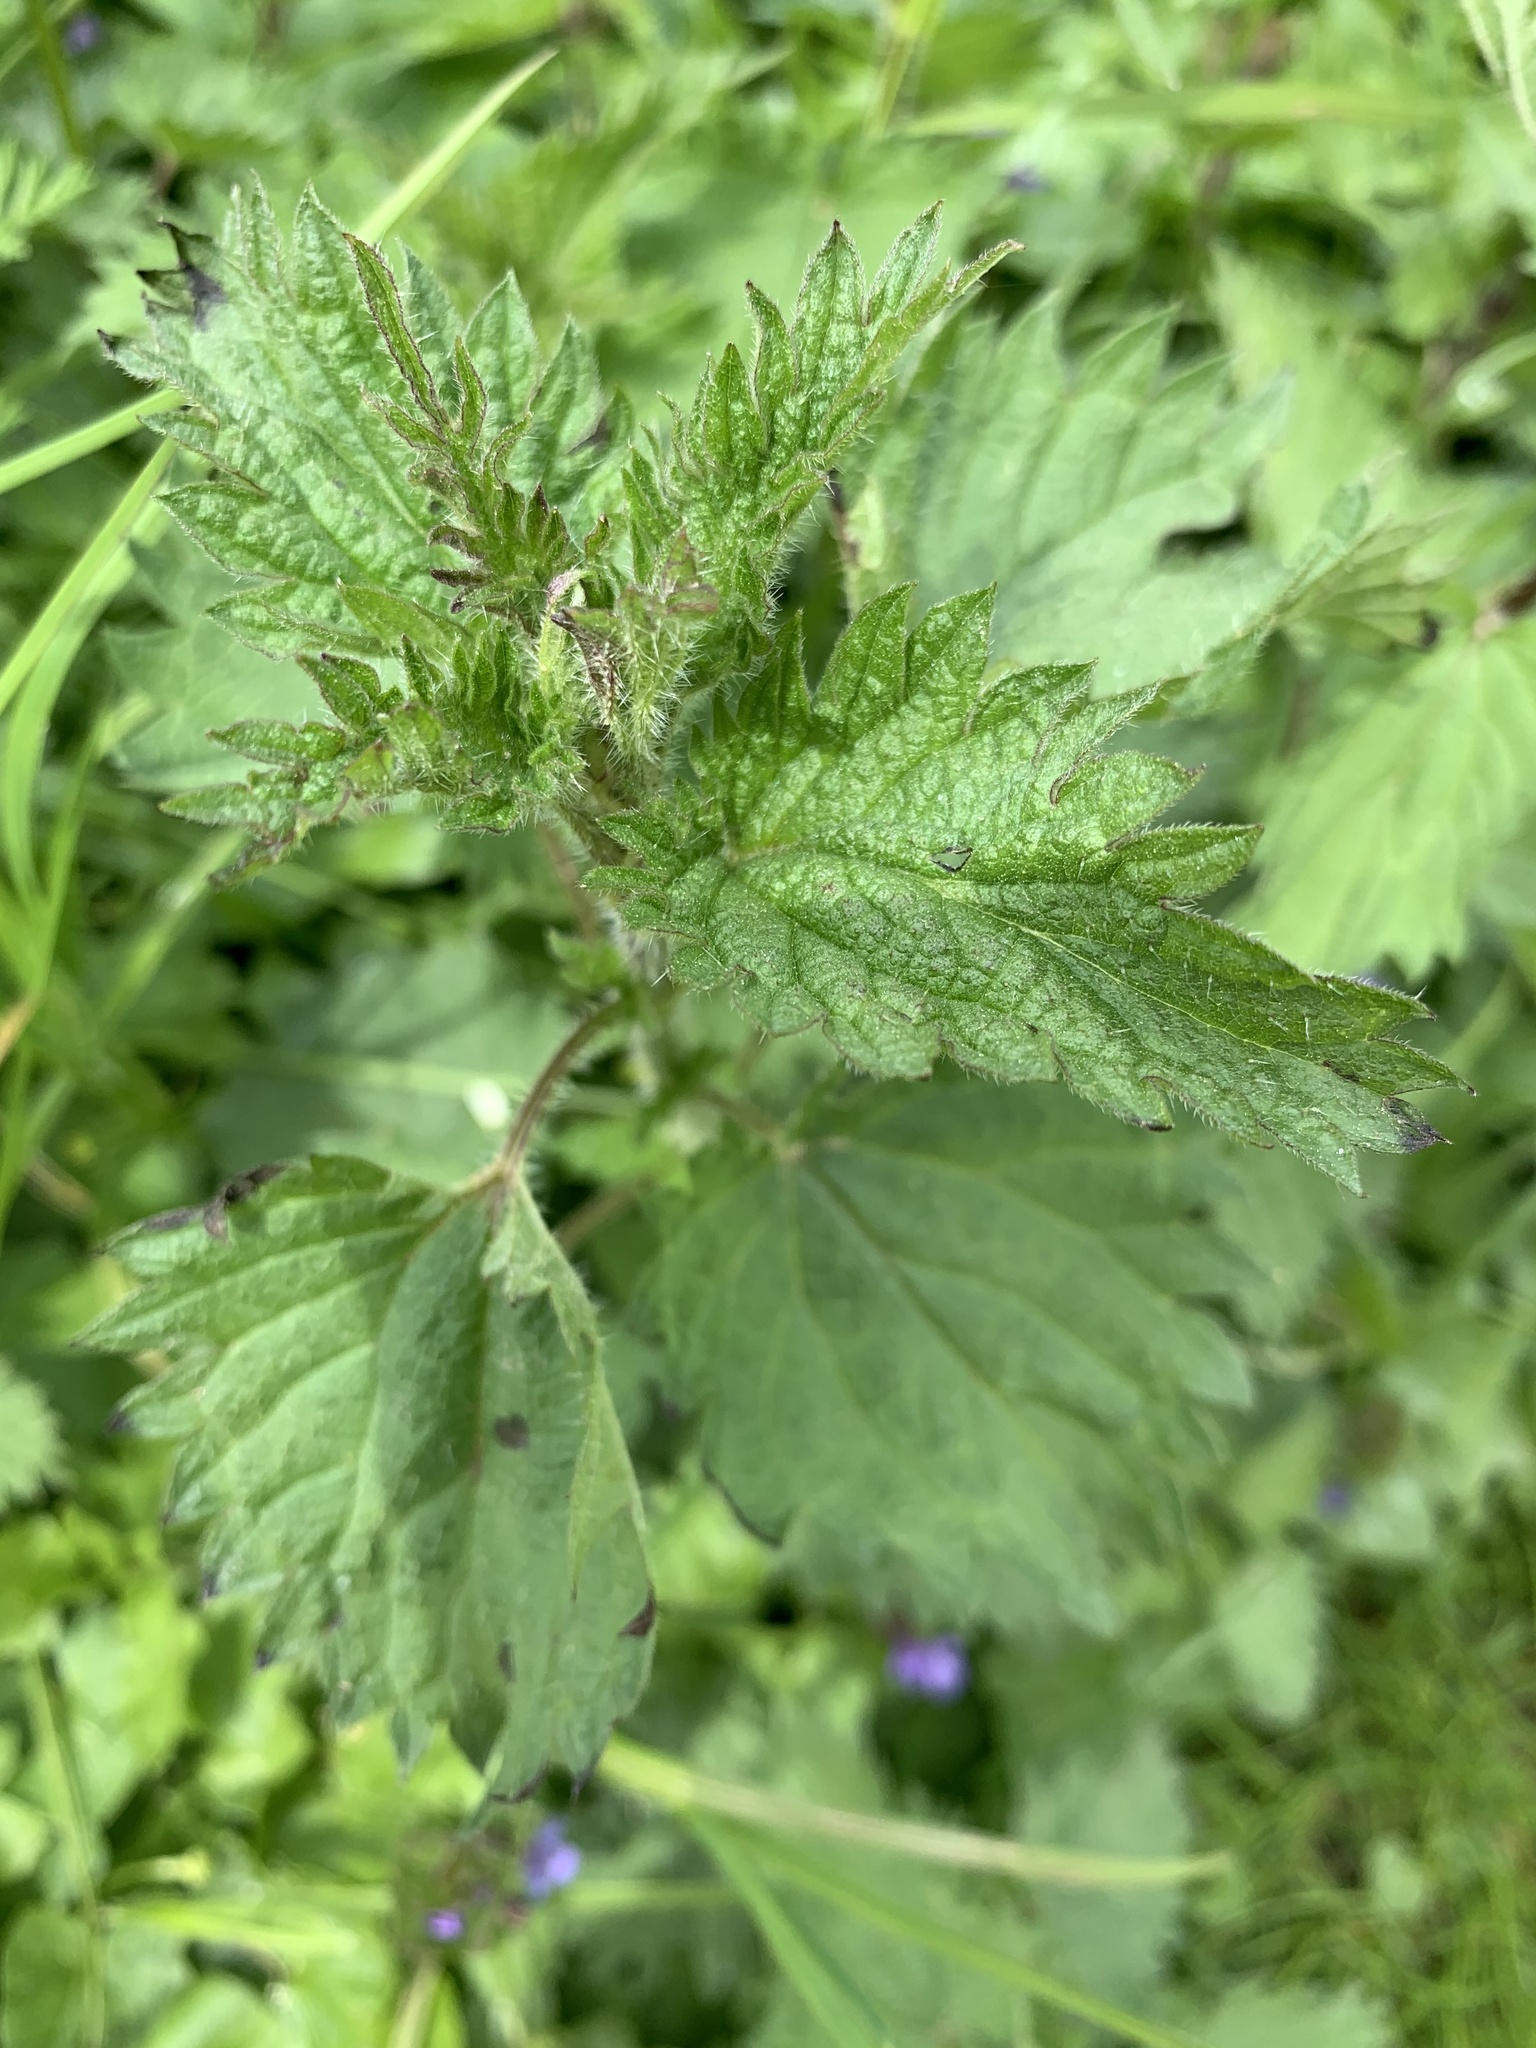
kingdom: Plantae
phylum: Tracheophyta
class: Magnoliopsida
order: Rosales
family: Urticaceae
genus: Urtica
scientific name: Urtica dioica
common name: Common nettle
